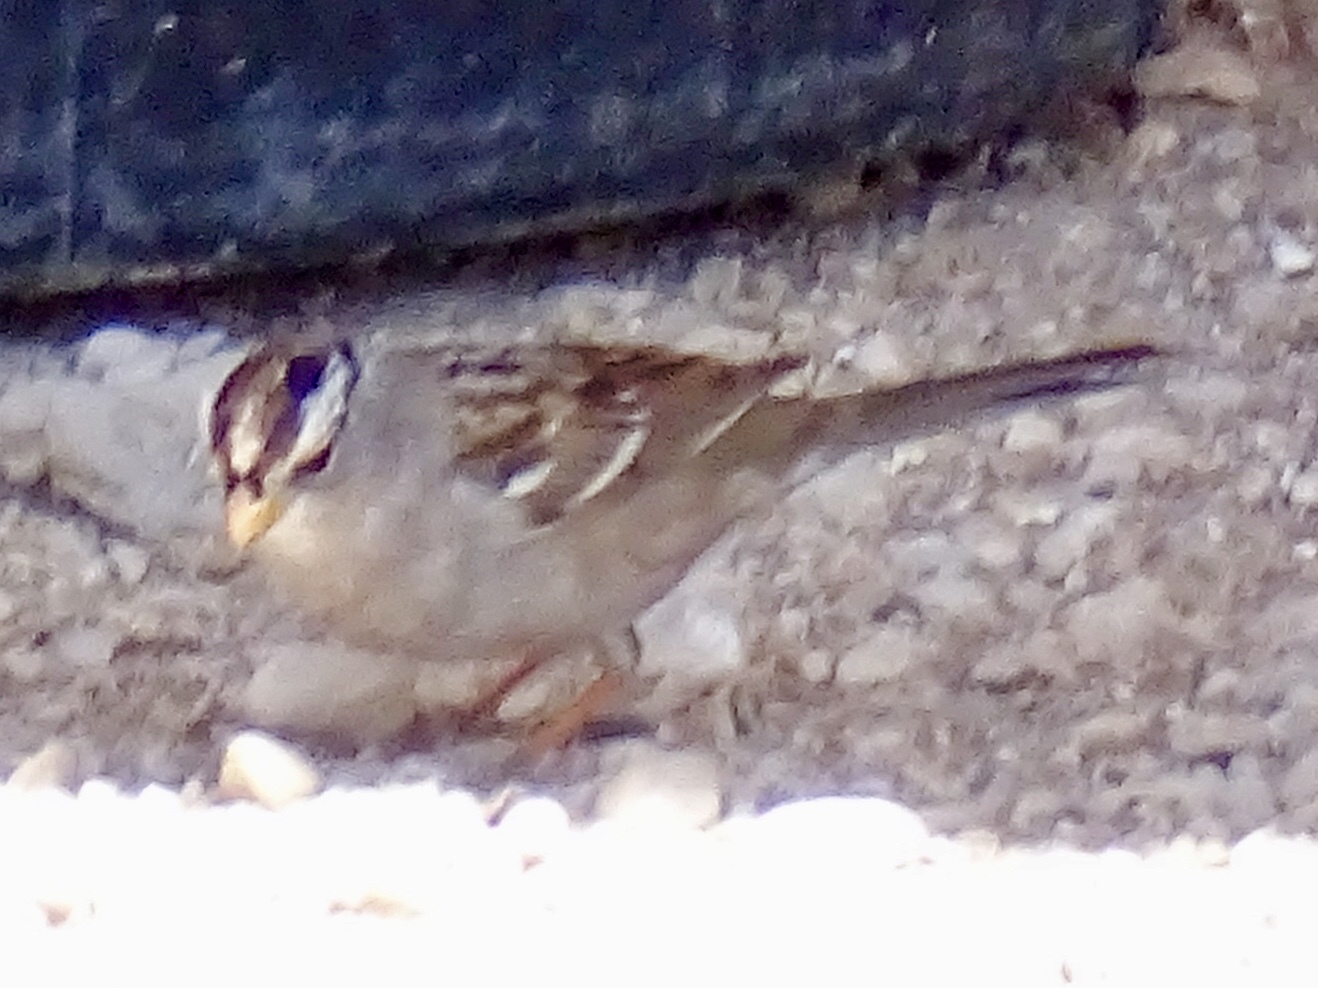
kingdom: Animalia
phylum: Chordata
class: Aves
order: Passeriformes
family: Passerellidae
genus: Zonotrichia
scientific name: Zonotrichia leucophrys
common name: White-crowned sparrow
